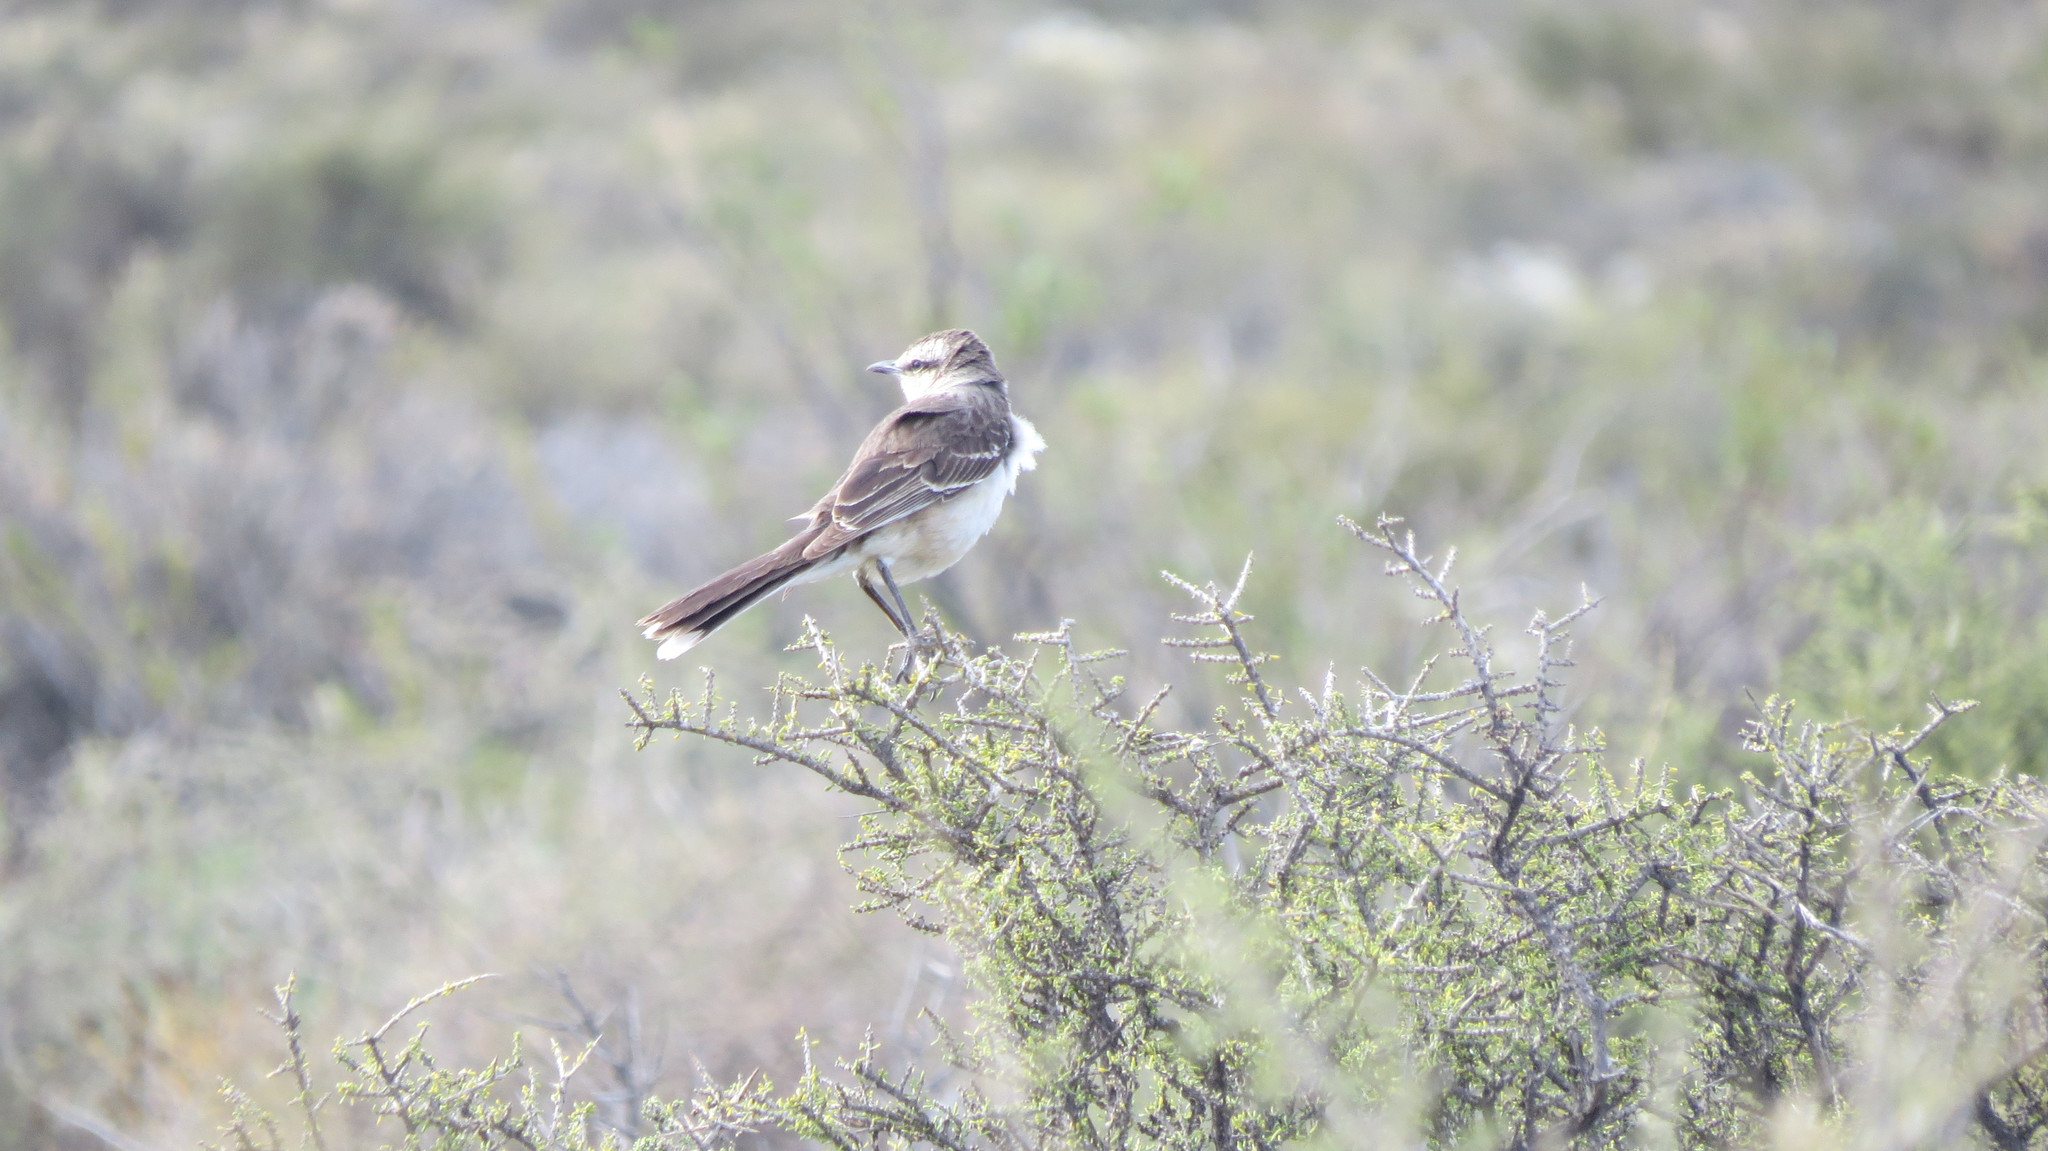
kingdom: Animalia
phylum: Chordata
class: Aves
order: Passeriformes
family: Mimidae
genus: Mimus
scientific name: Mimus saturninus
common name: Chalk-browed mockingbird
